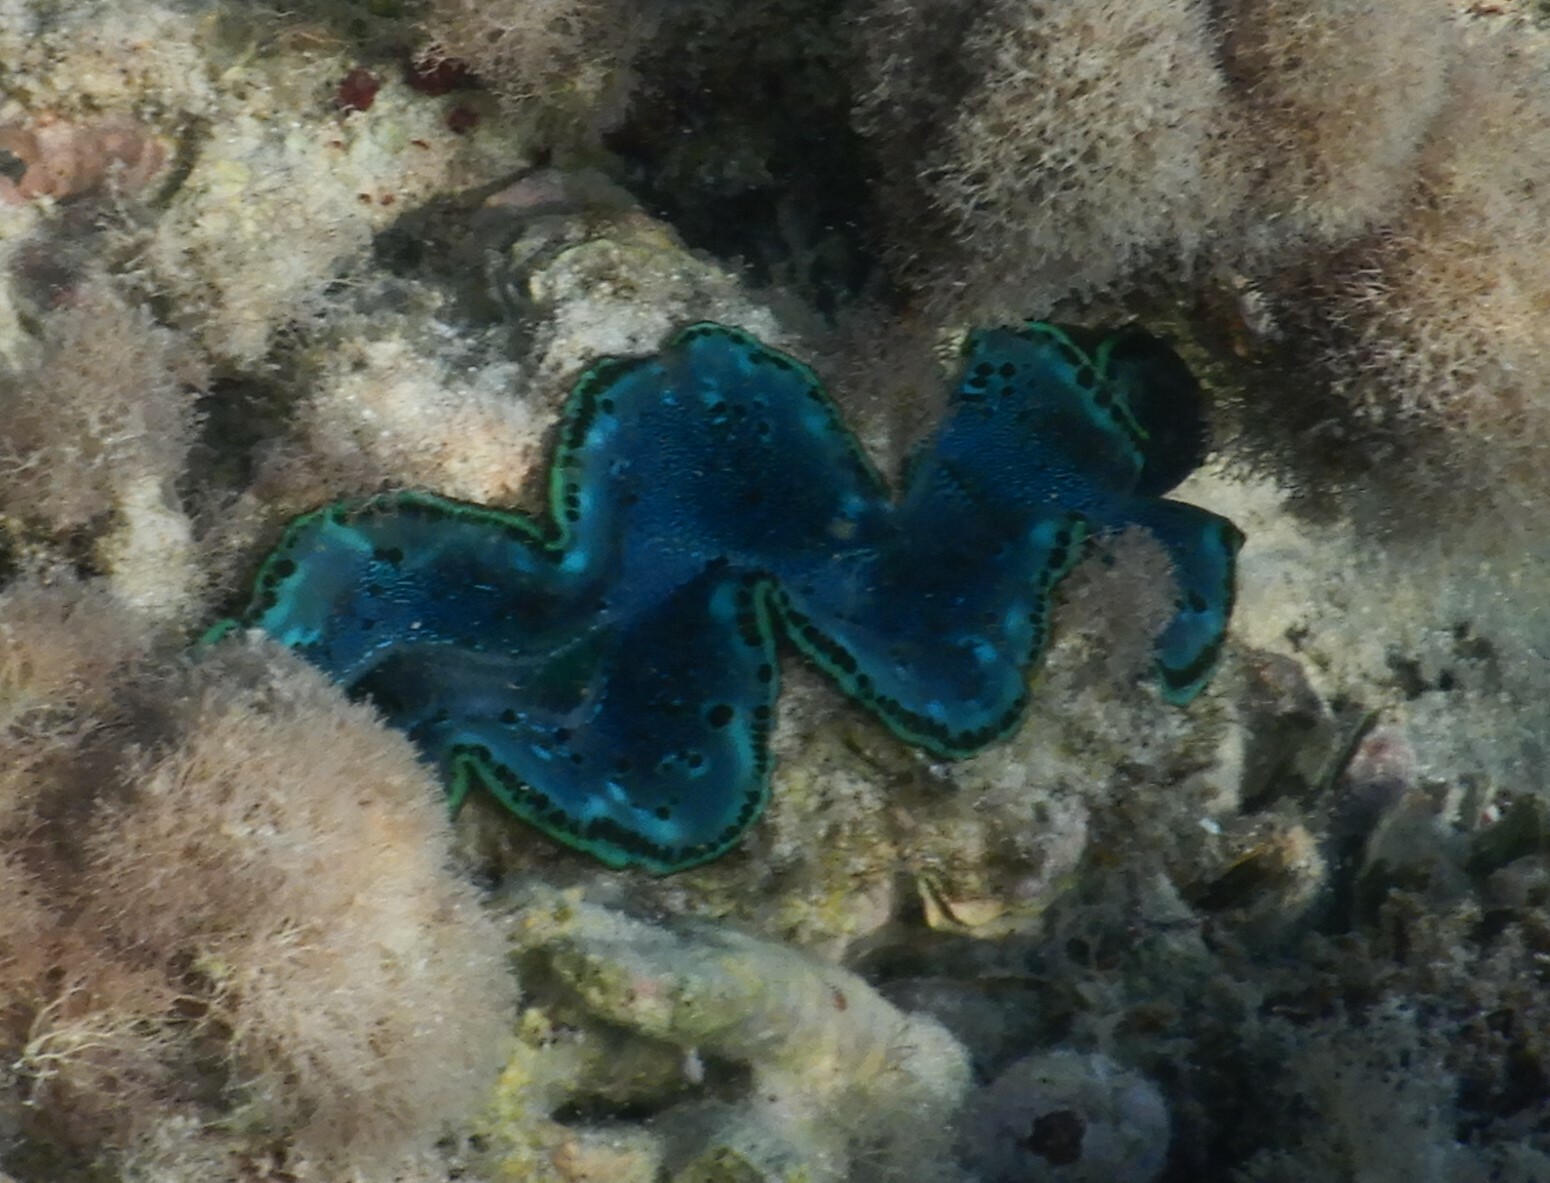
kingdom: Animalia
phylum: Mollusca
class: Bivalvia
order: Cardiida
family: Cardiidae
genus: Tridacna
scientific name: Tridacna maxima
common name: Small giant clam
